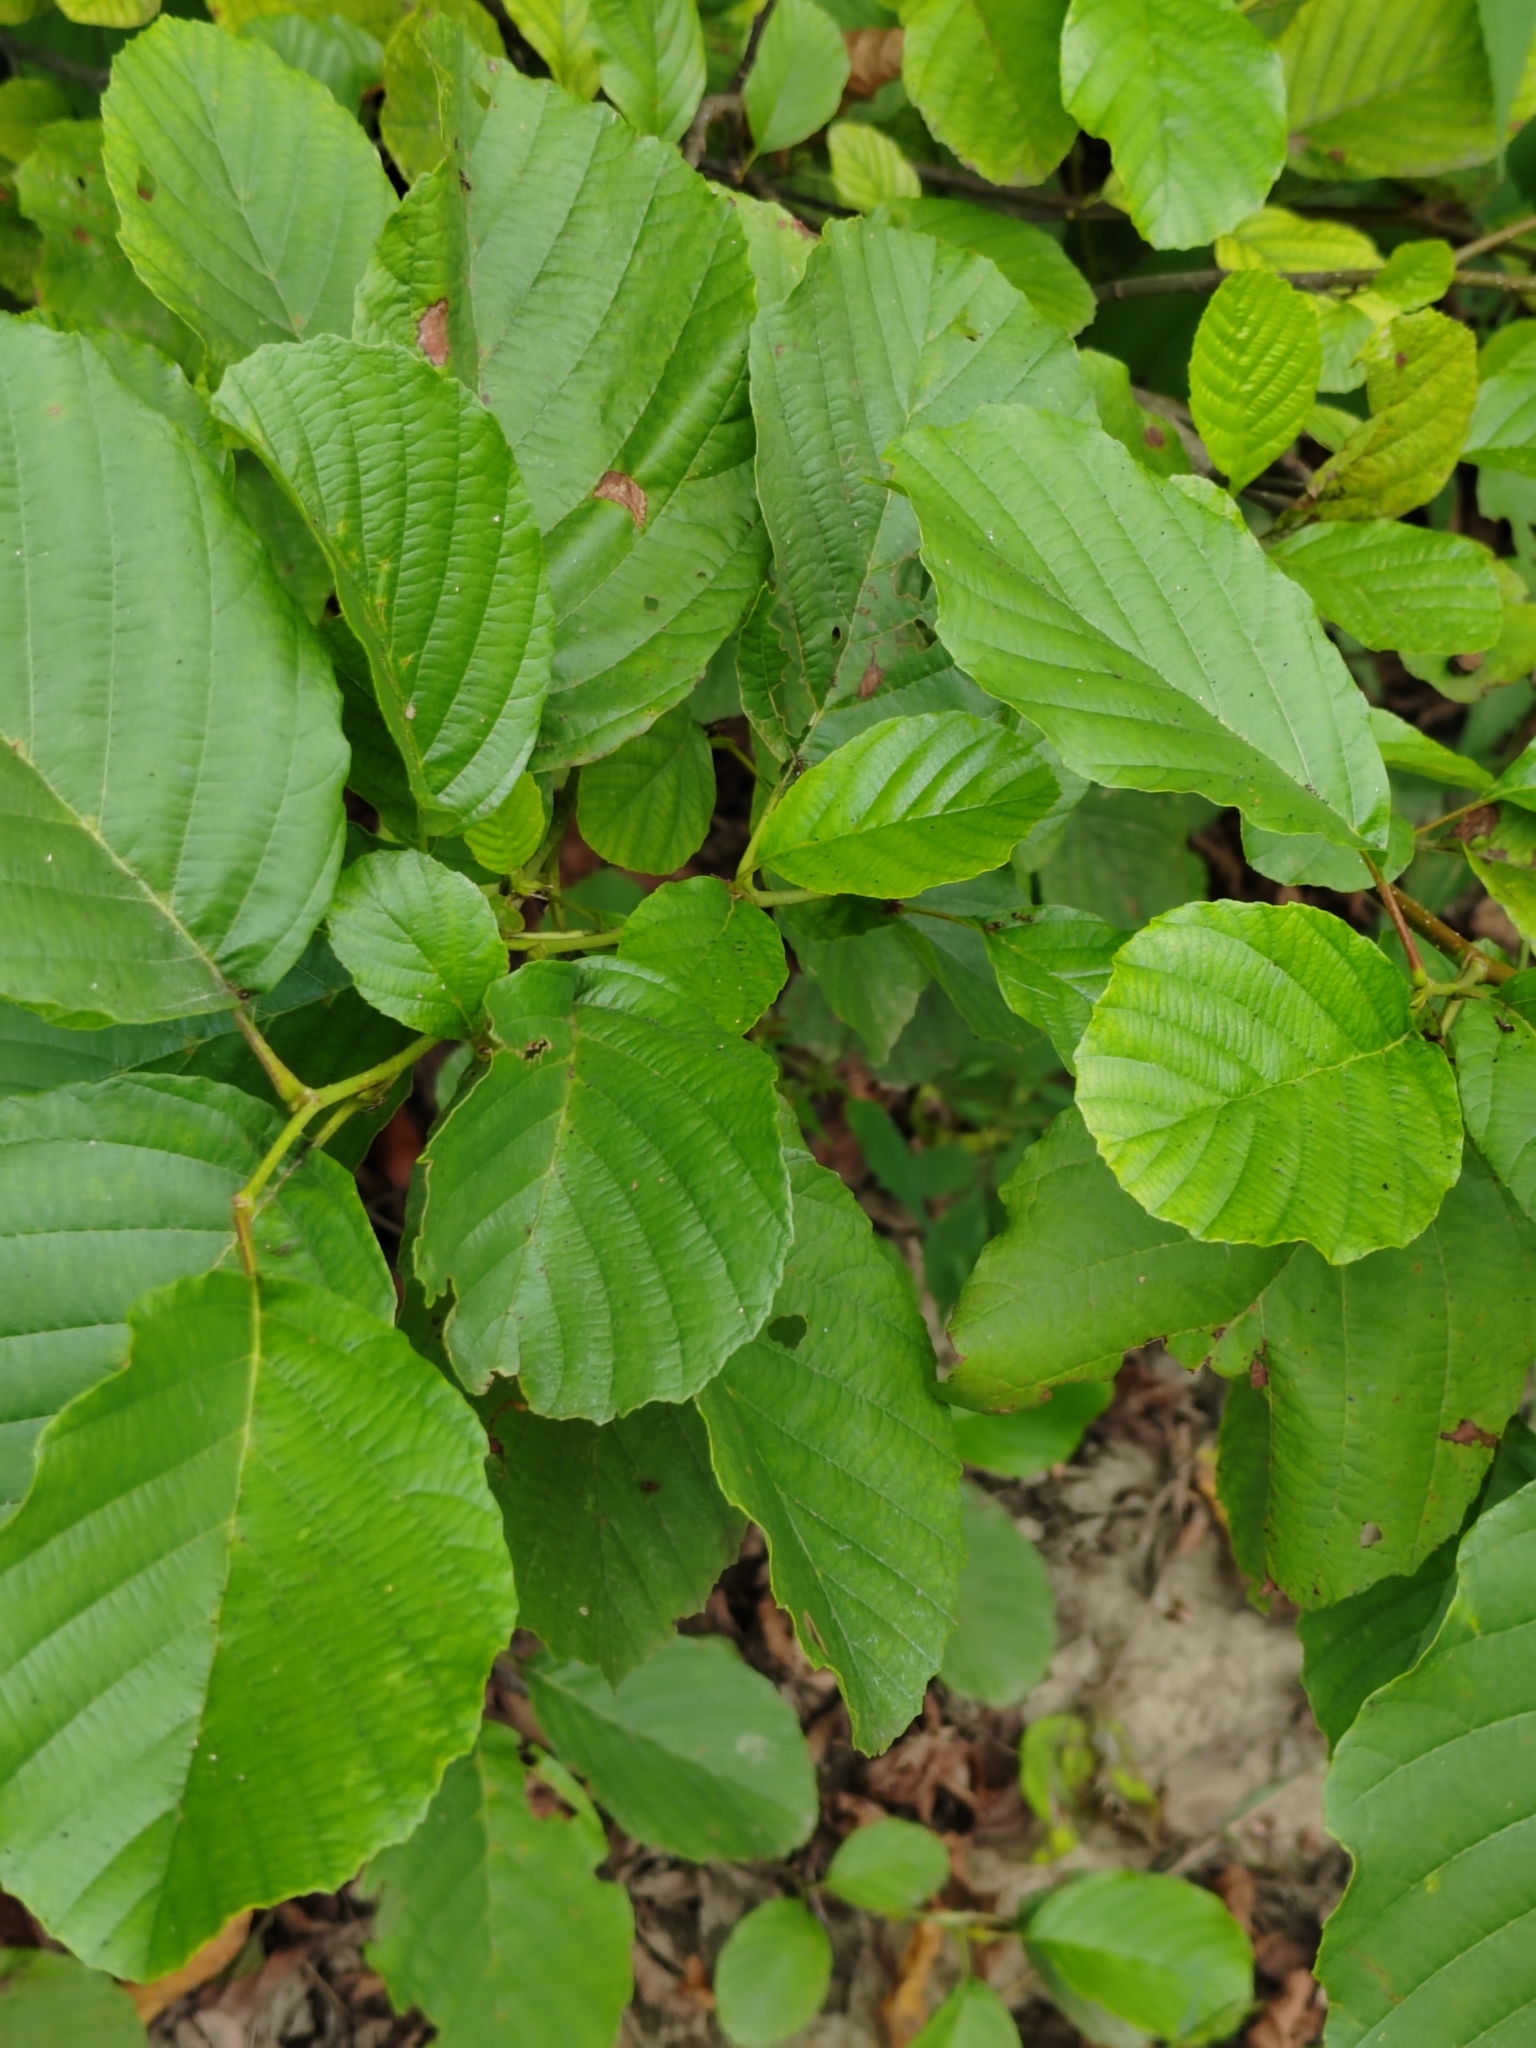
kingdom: Plantae
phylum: Tracheophyta
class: Magnoliopsida
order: Fagales
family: Betulaceae
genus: Alnus
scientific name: Alnus glutinosa
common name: Black alder
